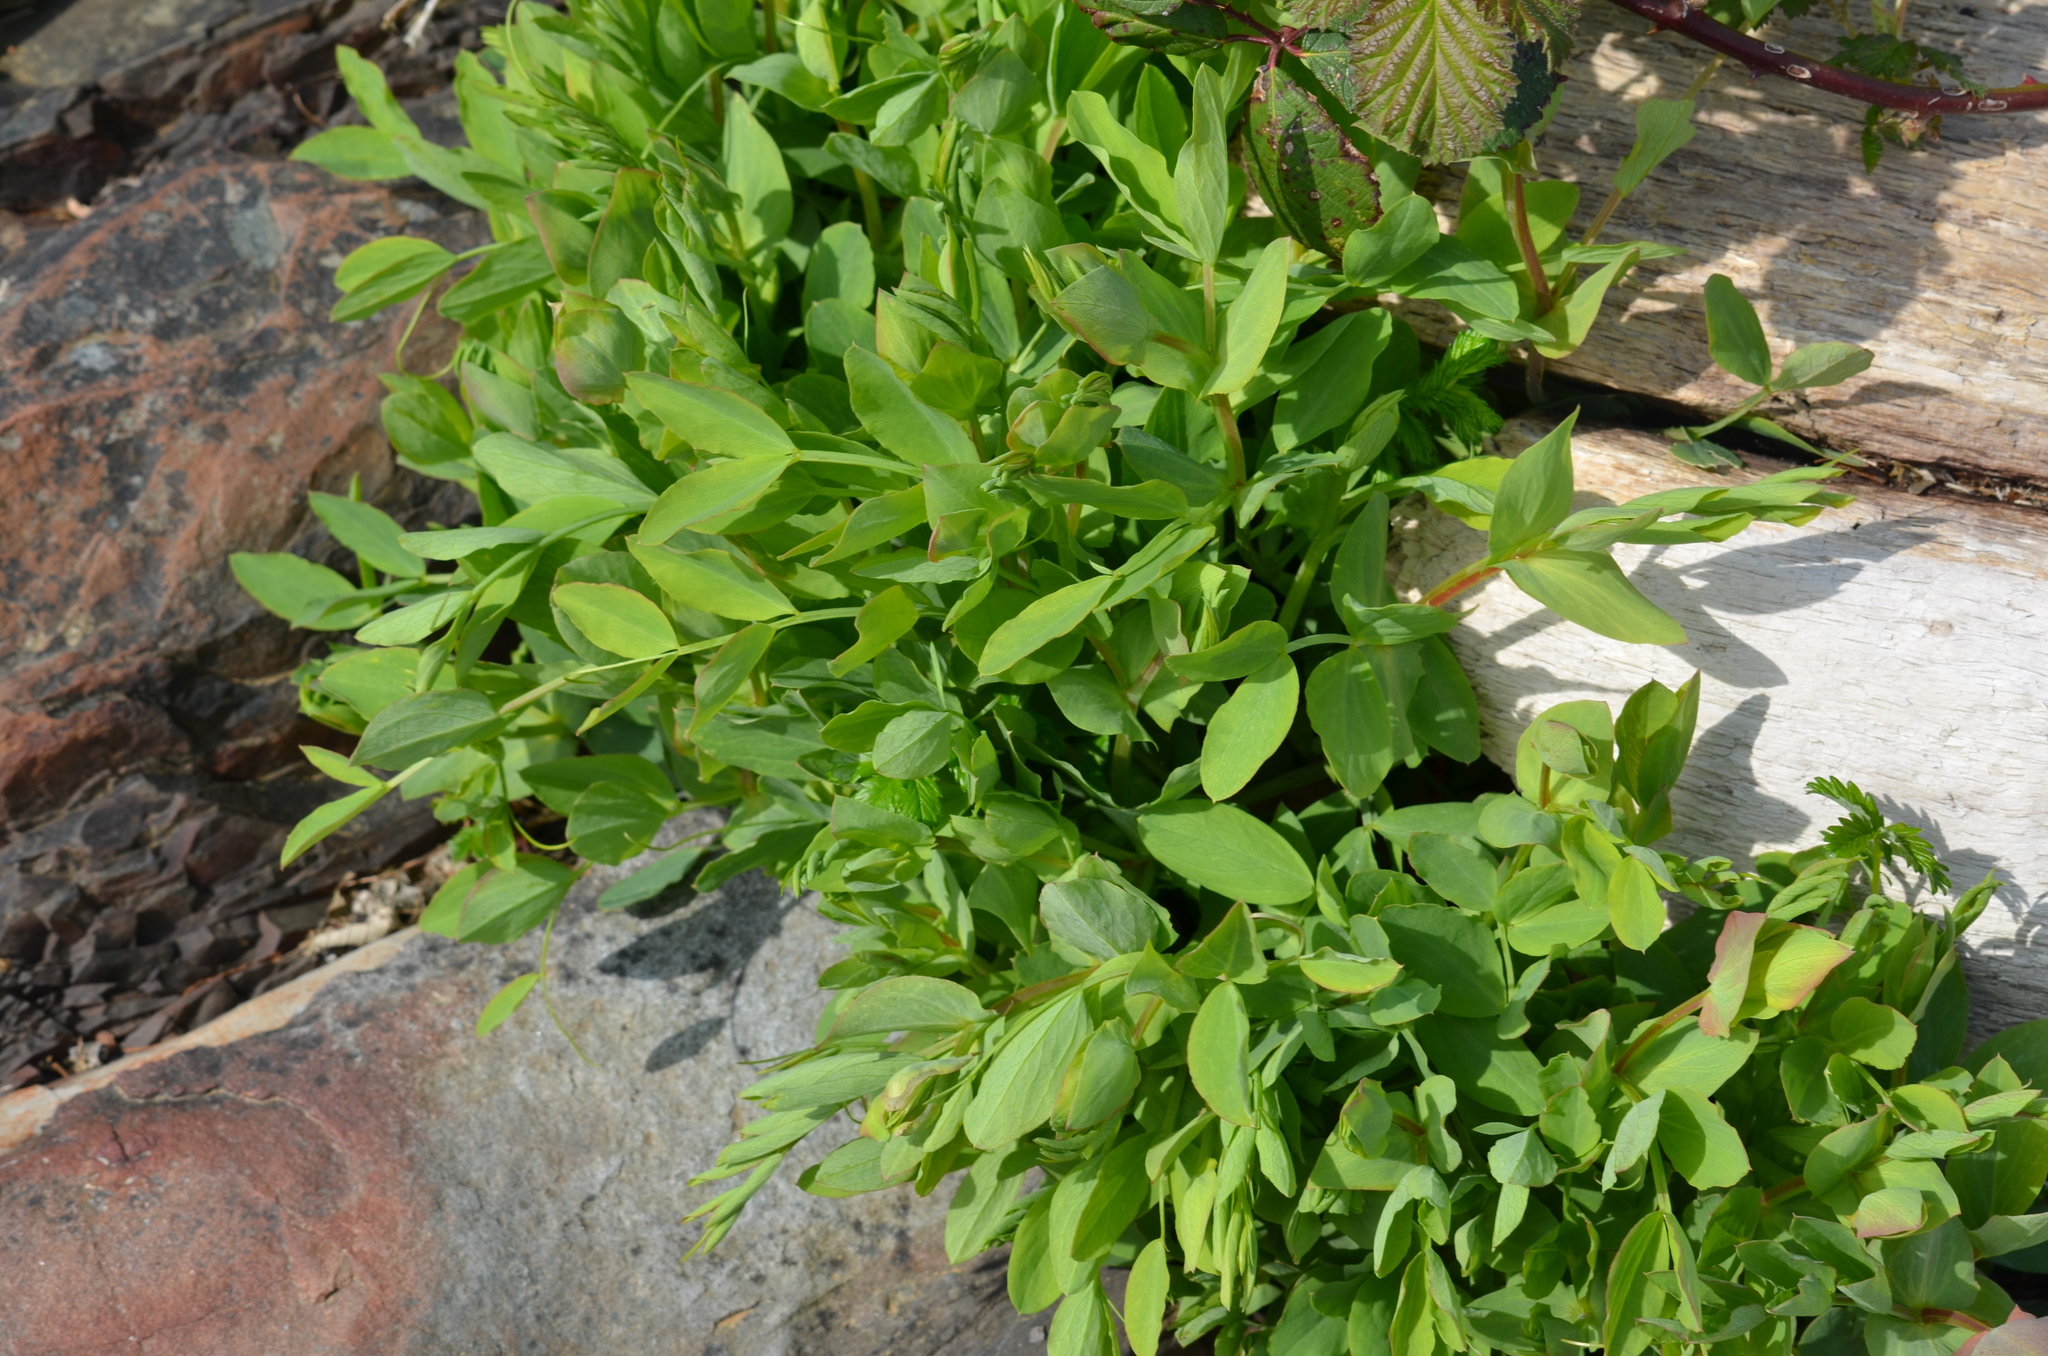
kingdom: Plantae
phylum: Tracheophyta
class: Magnoliopsida
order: Fabales
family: Fabaceae
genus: Lathyrus
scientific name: Lathyrus japonicus
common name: Sea pea
